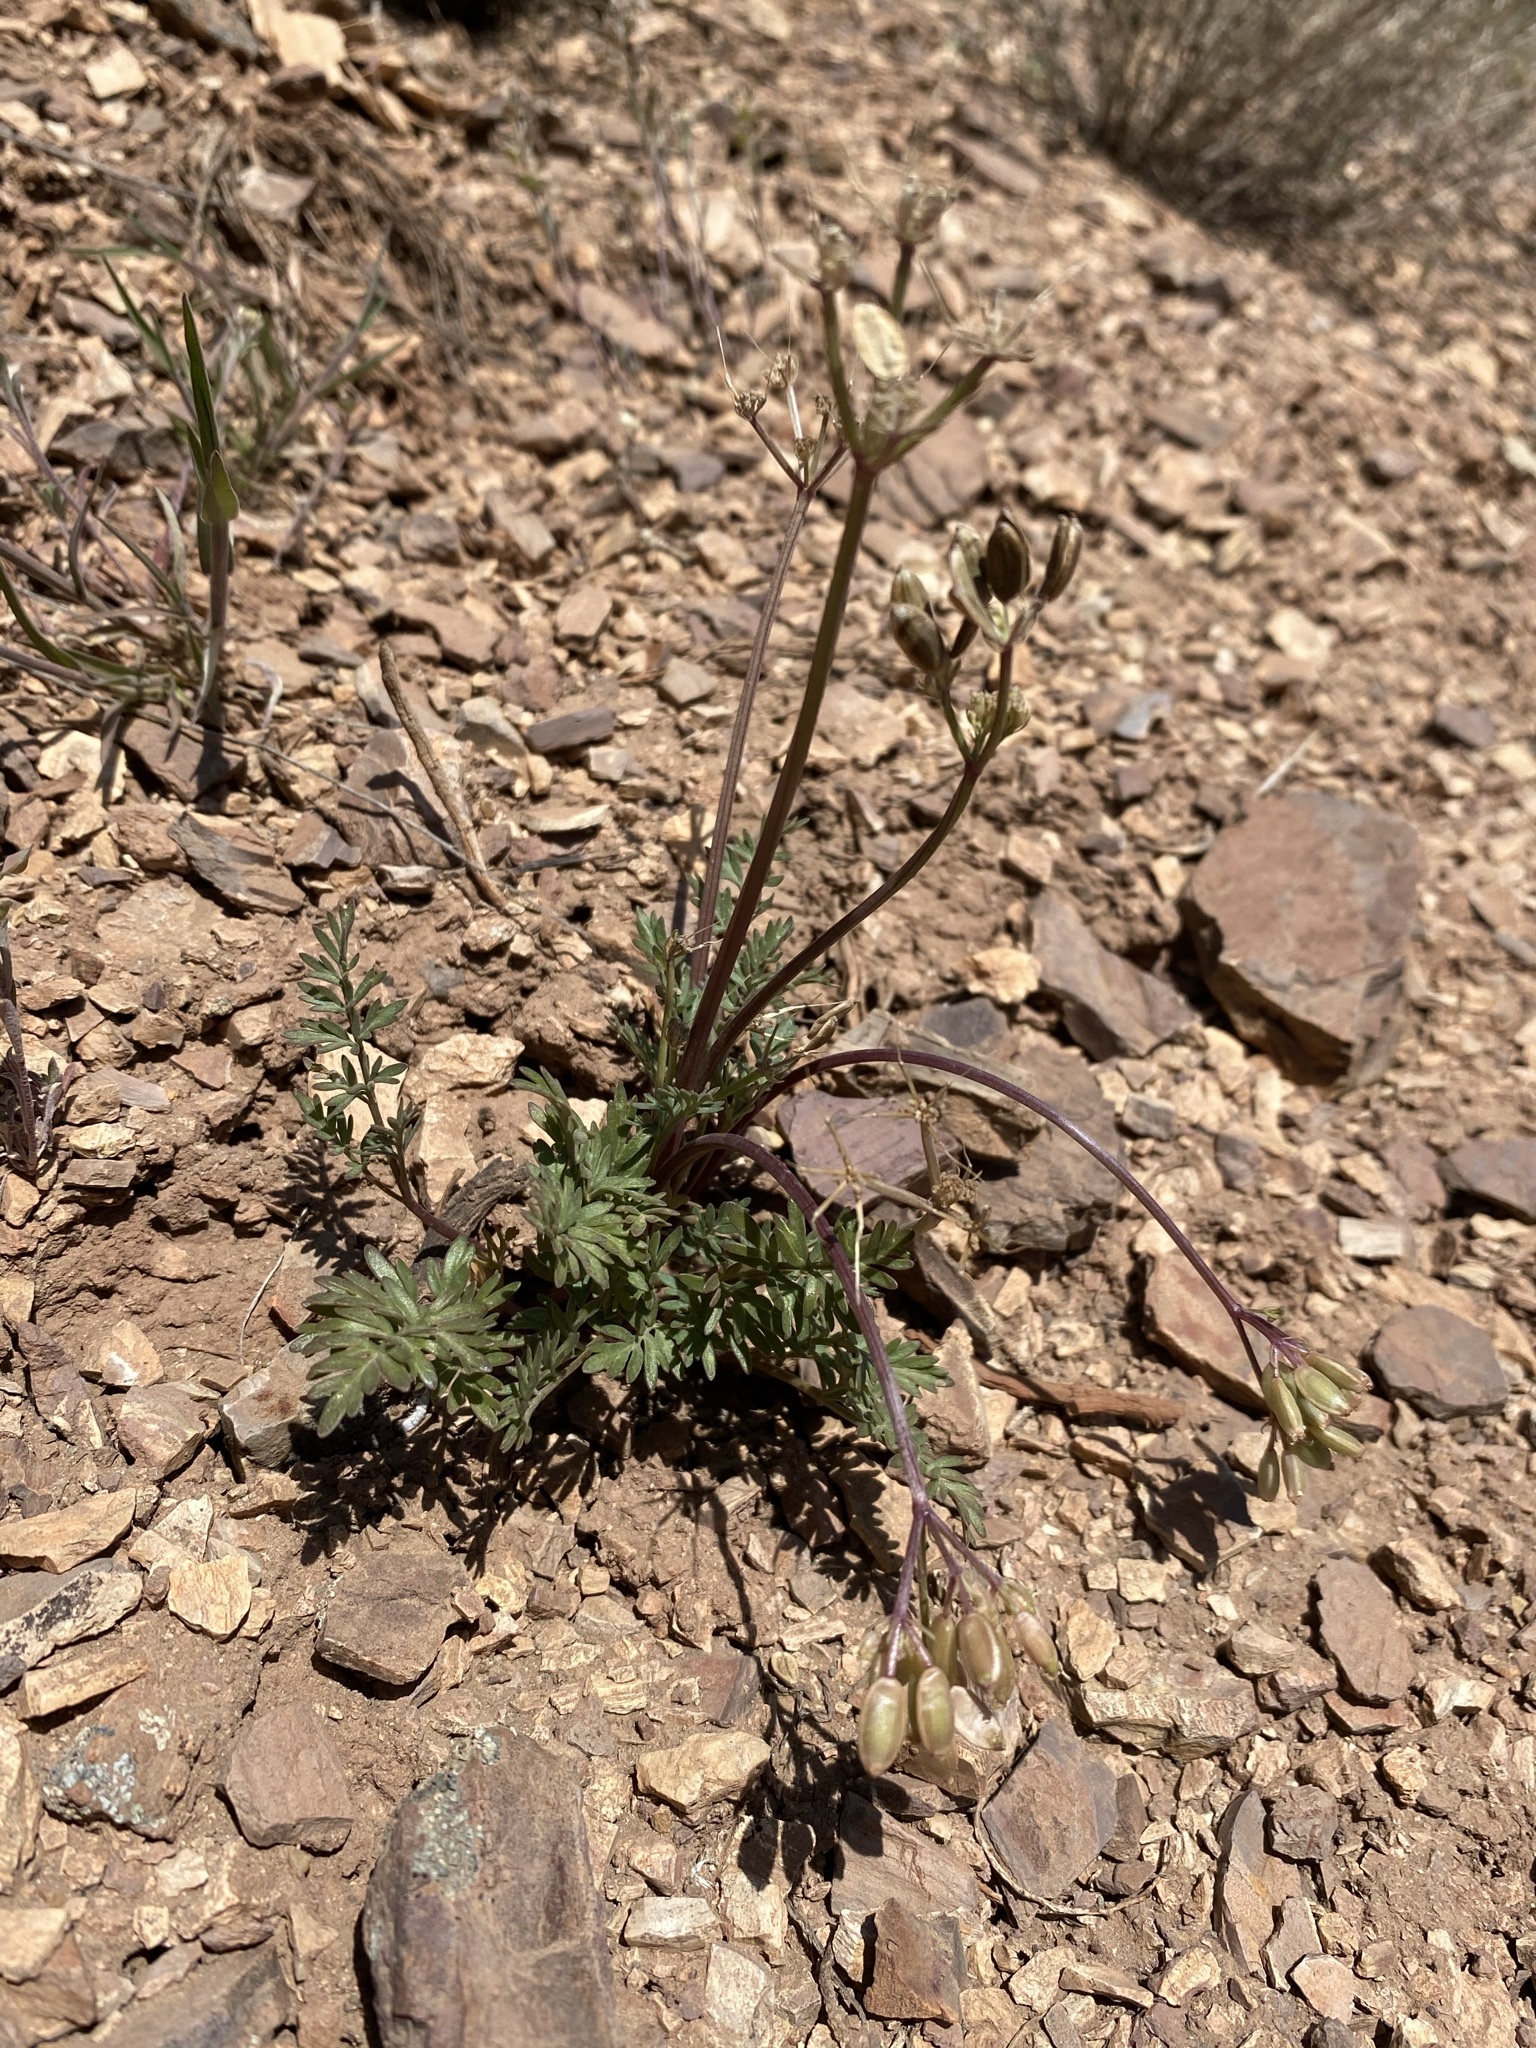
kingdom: Plantae
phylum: Tracheophyta
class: Magnoliopsida
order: Apiales
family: Apiaceae
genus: Lomatium
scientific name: Lomatium hendersonii
